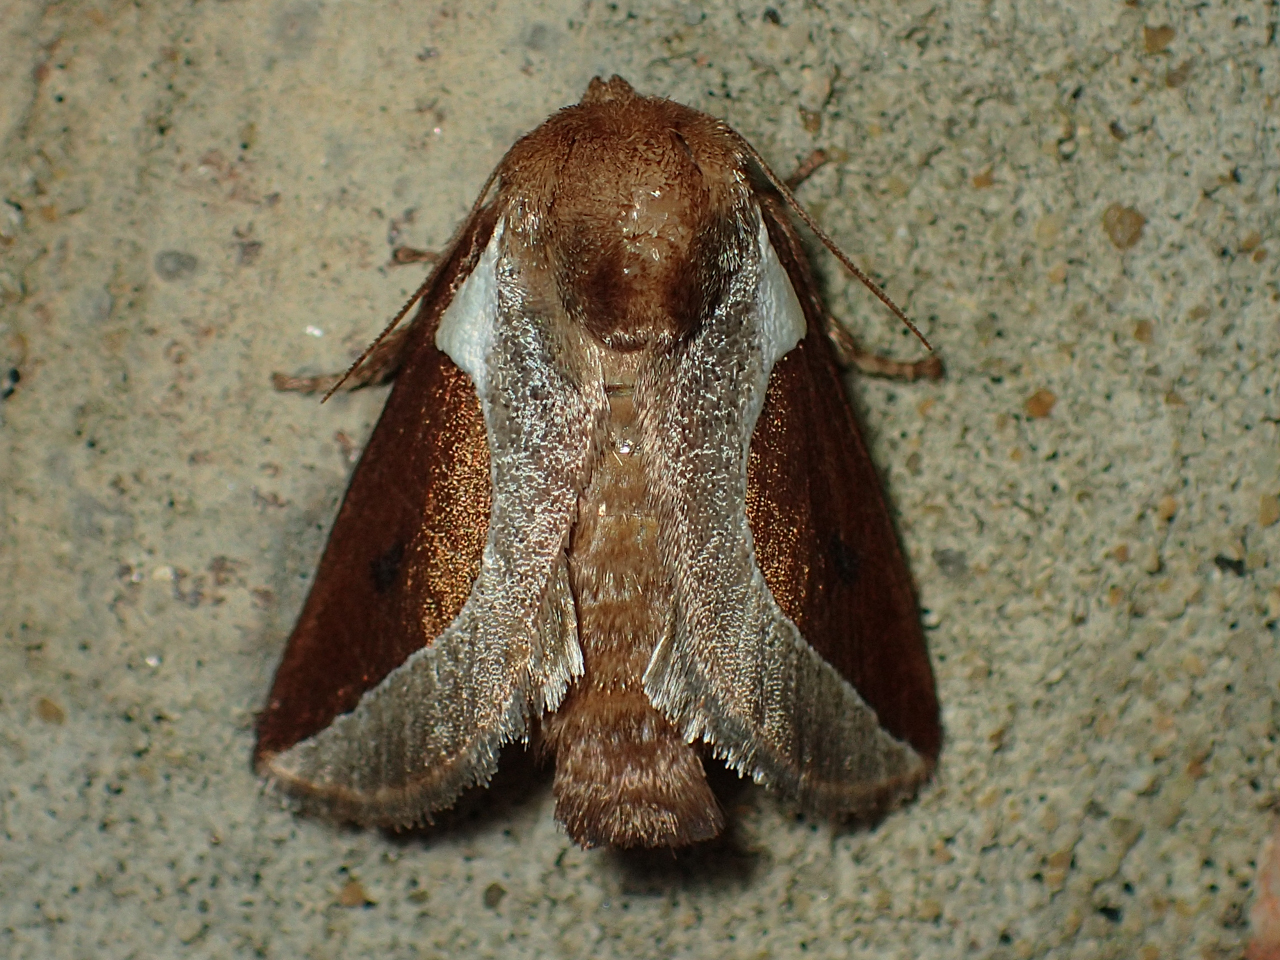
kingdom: Animalia
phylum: Arthropoda
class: Insecta
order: Lepidoptera
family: Limacodidae
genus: Prolimacodes
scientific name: Prolimacodes badia
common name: Skiff moth
